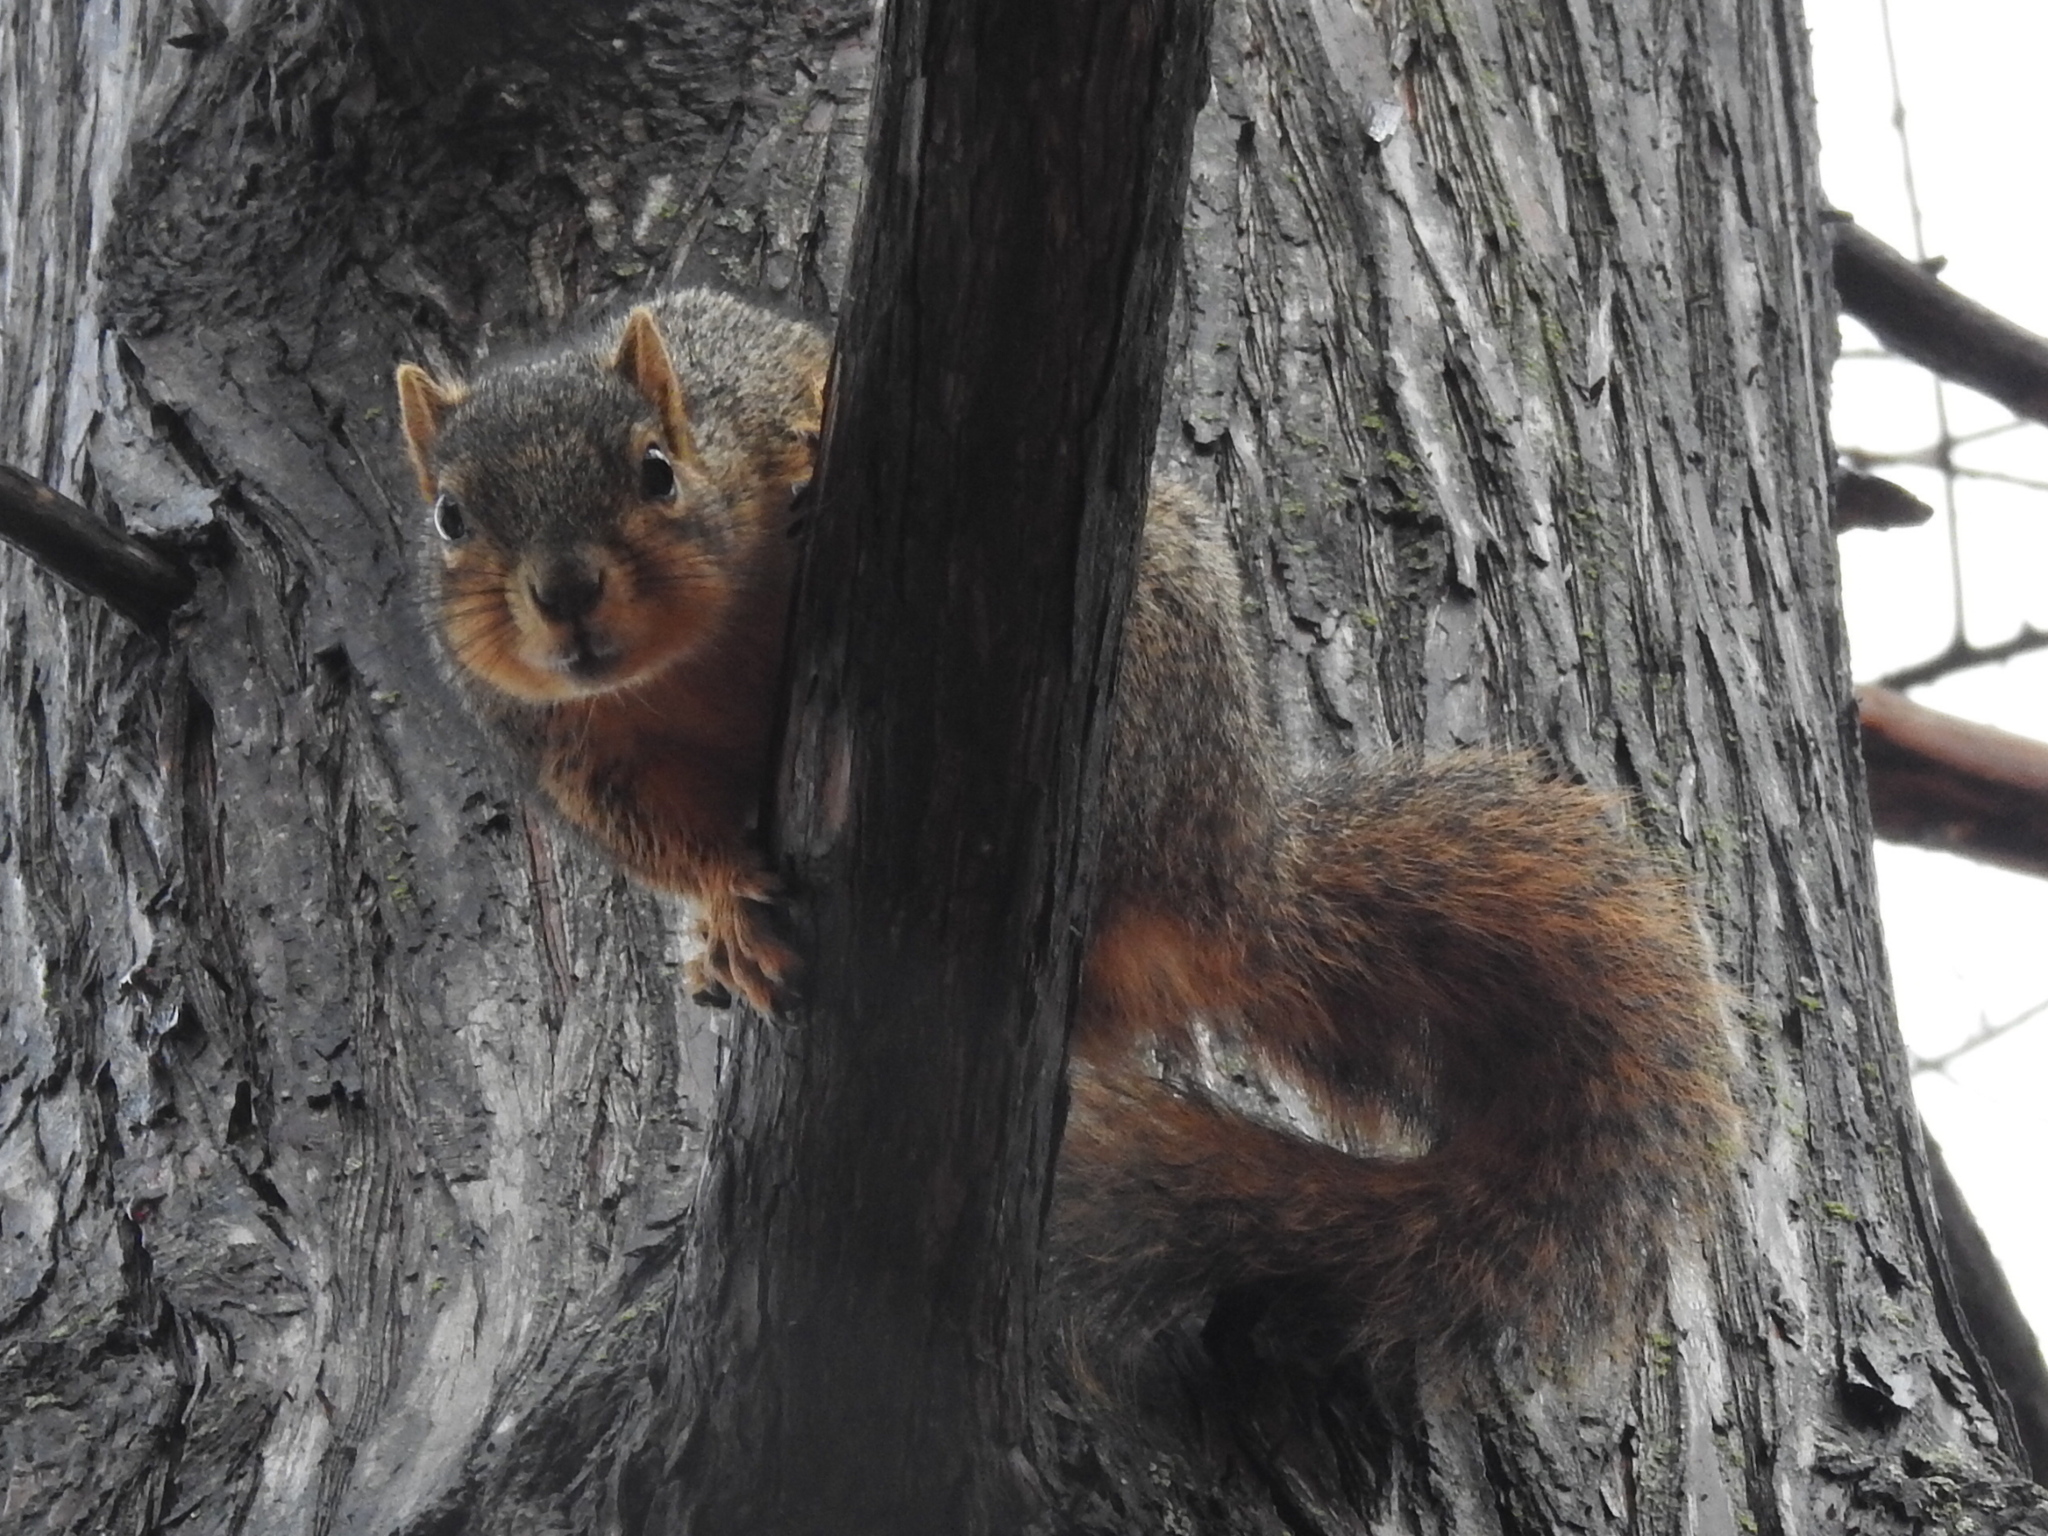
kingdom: Animalia
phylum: Chordata
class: Mammalia
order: Rodentia
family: Sciuridae
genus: Sciurus
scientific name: Sciurus niger
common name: Fox squirrel
